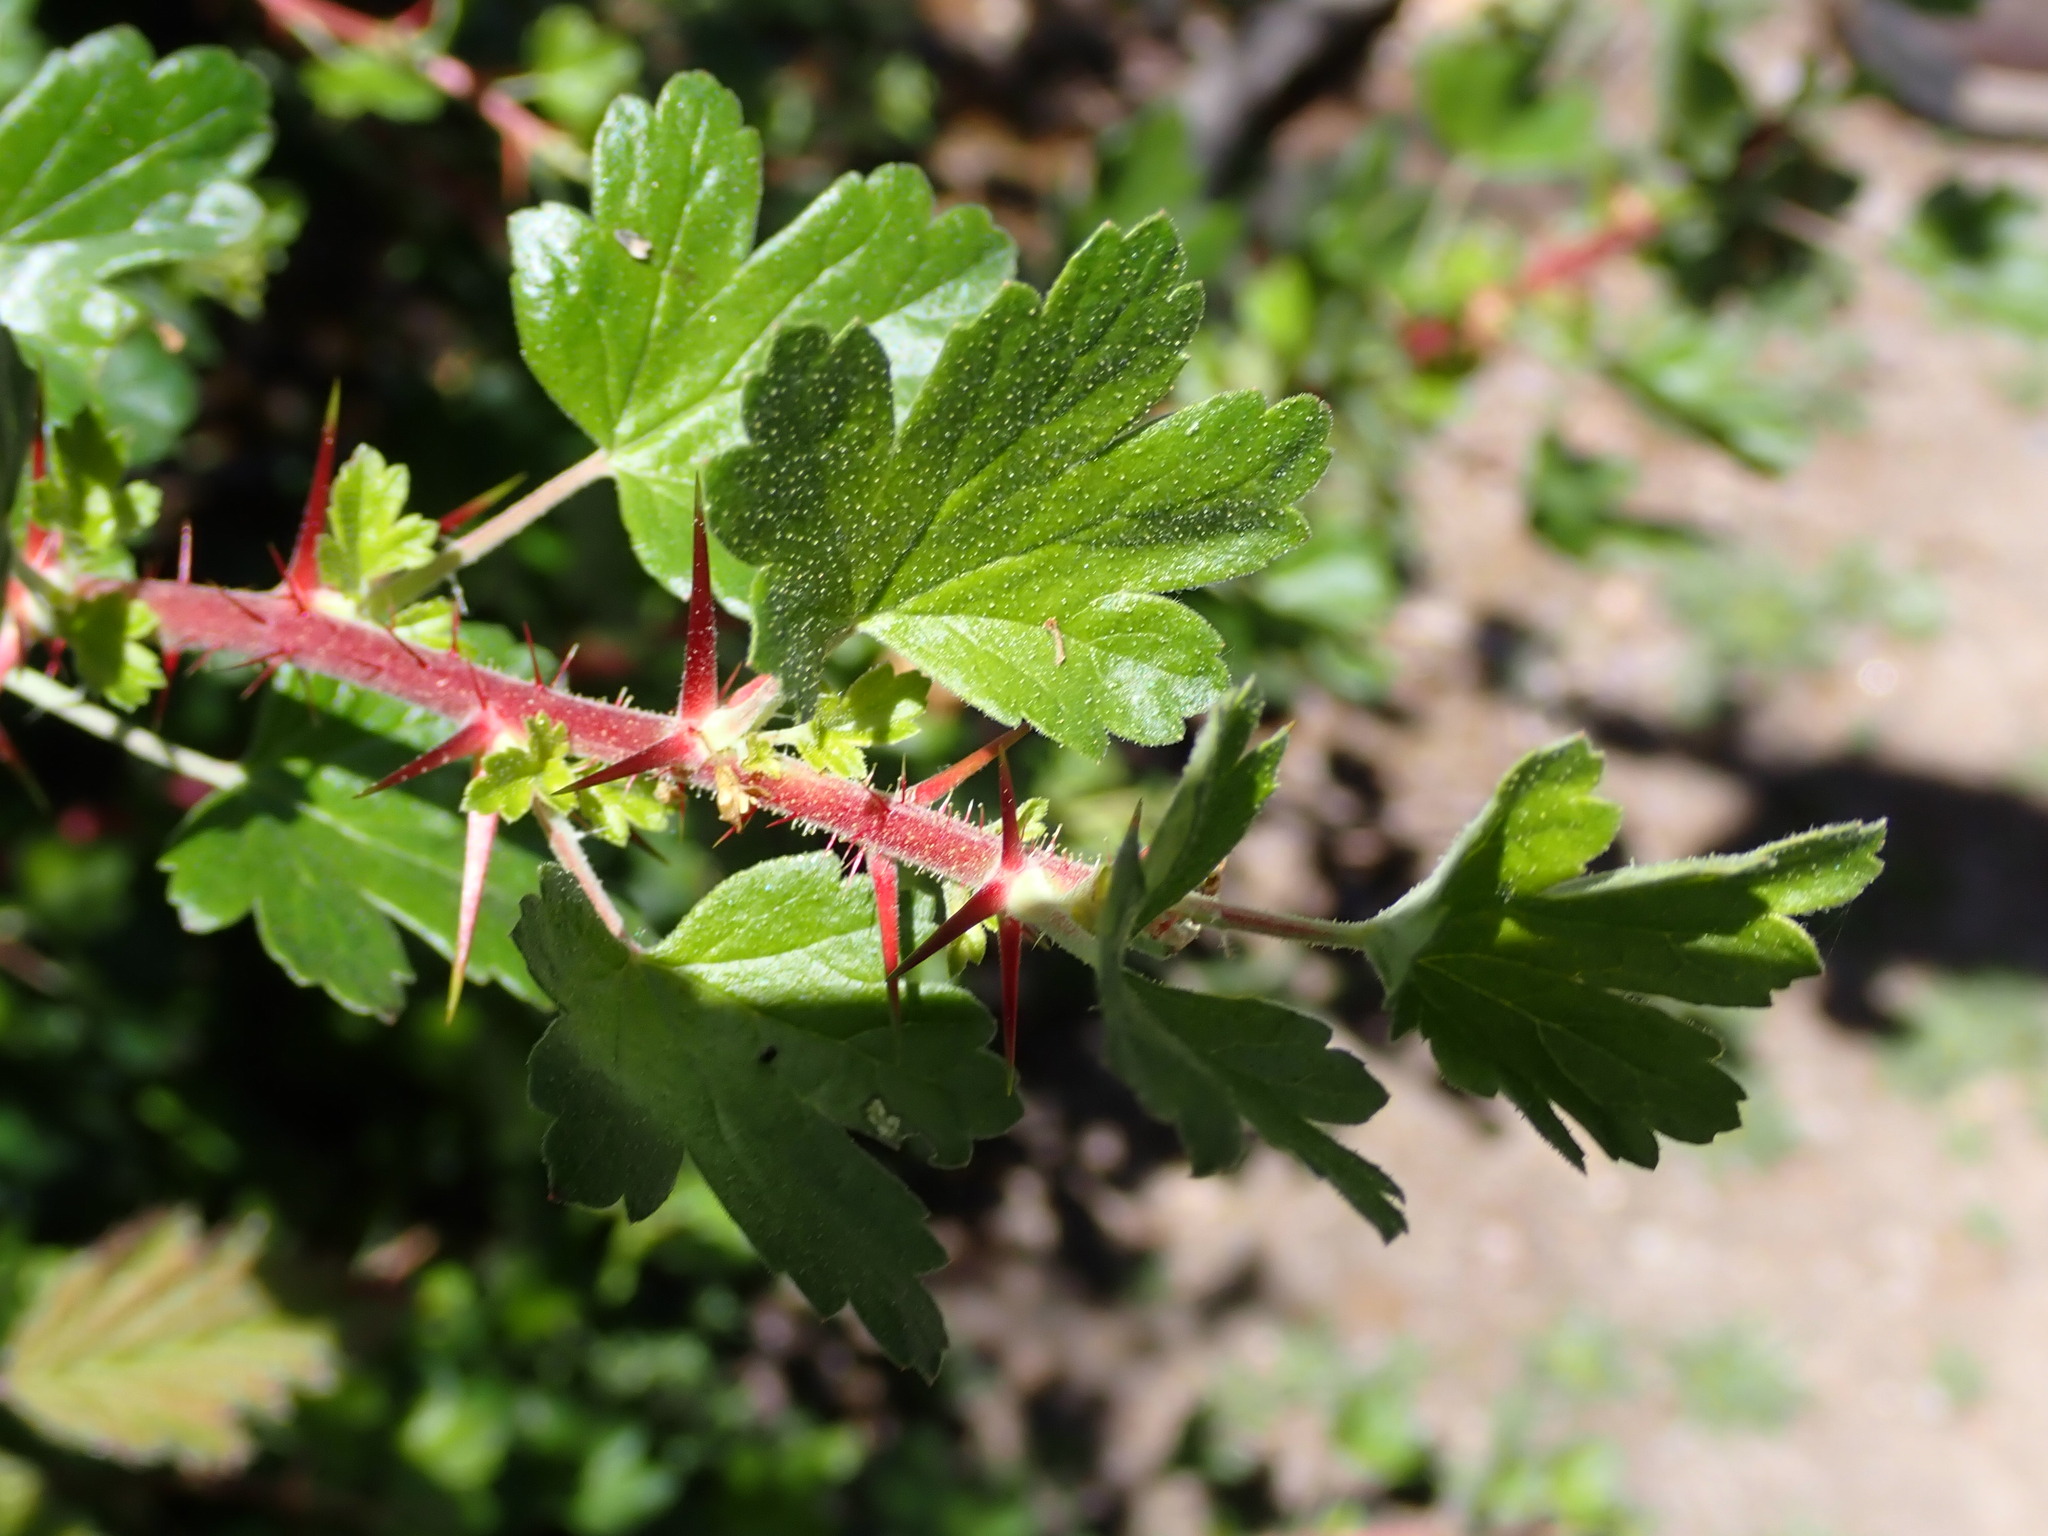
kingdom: Plantae
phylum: Tracheophyta
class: Magnoliopsida
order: Saxifragales
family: Grossulariaceae
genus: Ribes
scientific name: Ribes californicum
